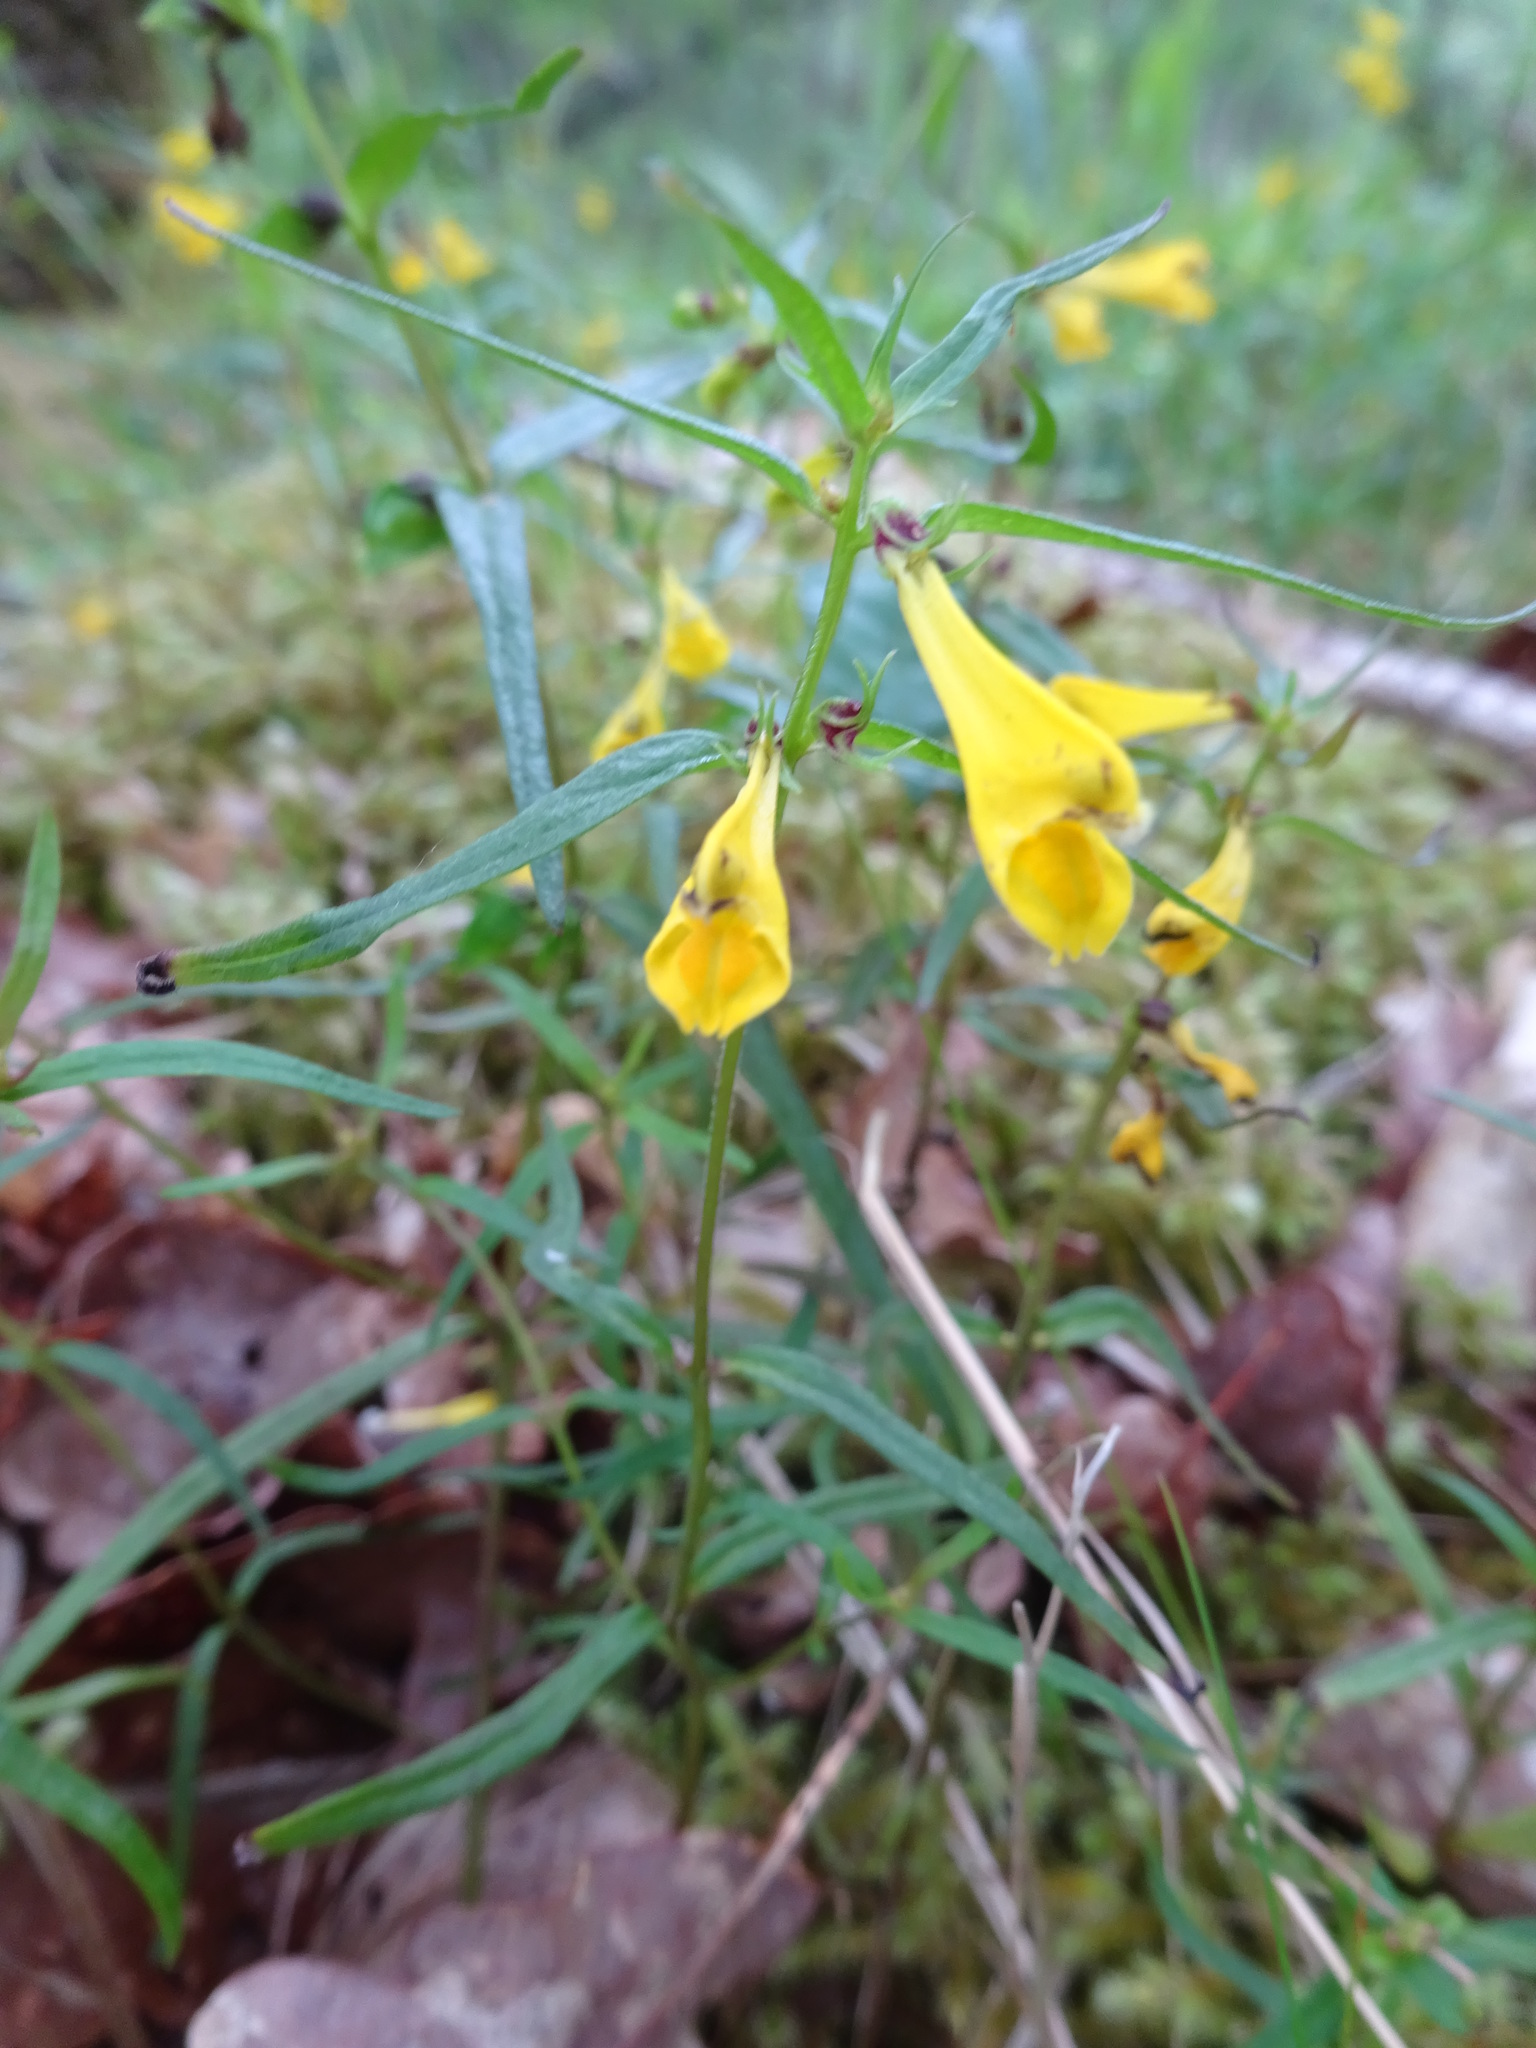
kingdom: Plantae
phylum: Tracheophyta
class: Magnoliopsida
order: Lamiales
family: Orobanchaceae
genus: Melampyrum
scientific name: Melampyrum pratense
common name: Common cow-wheat
